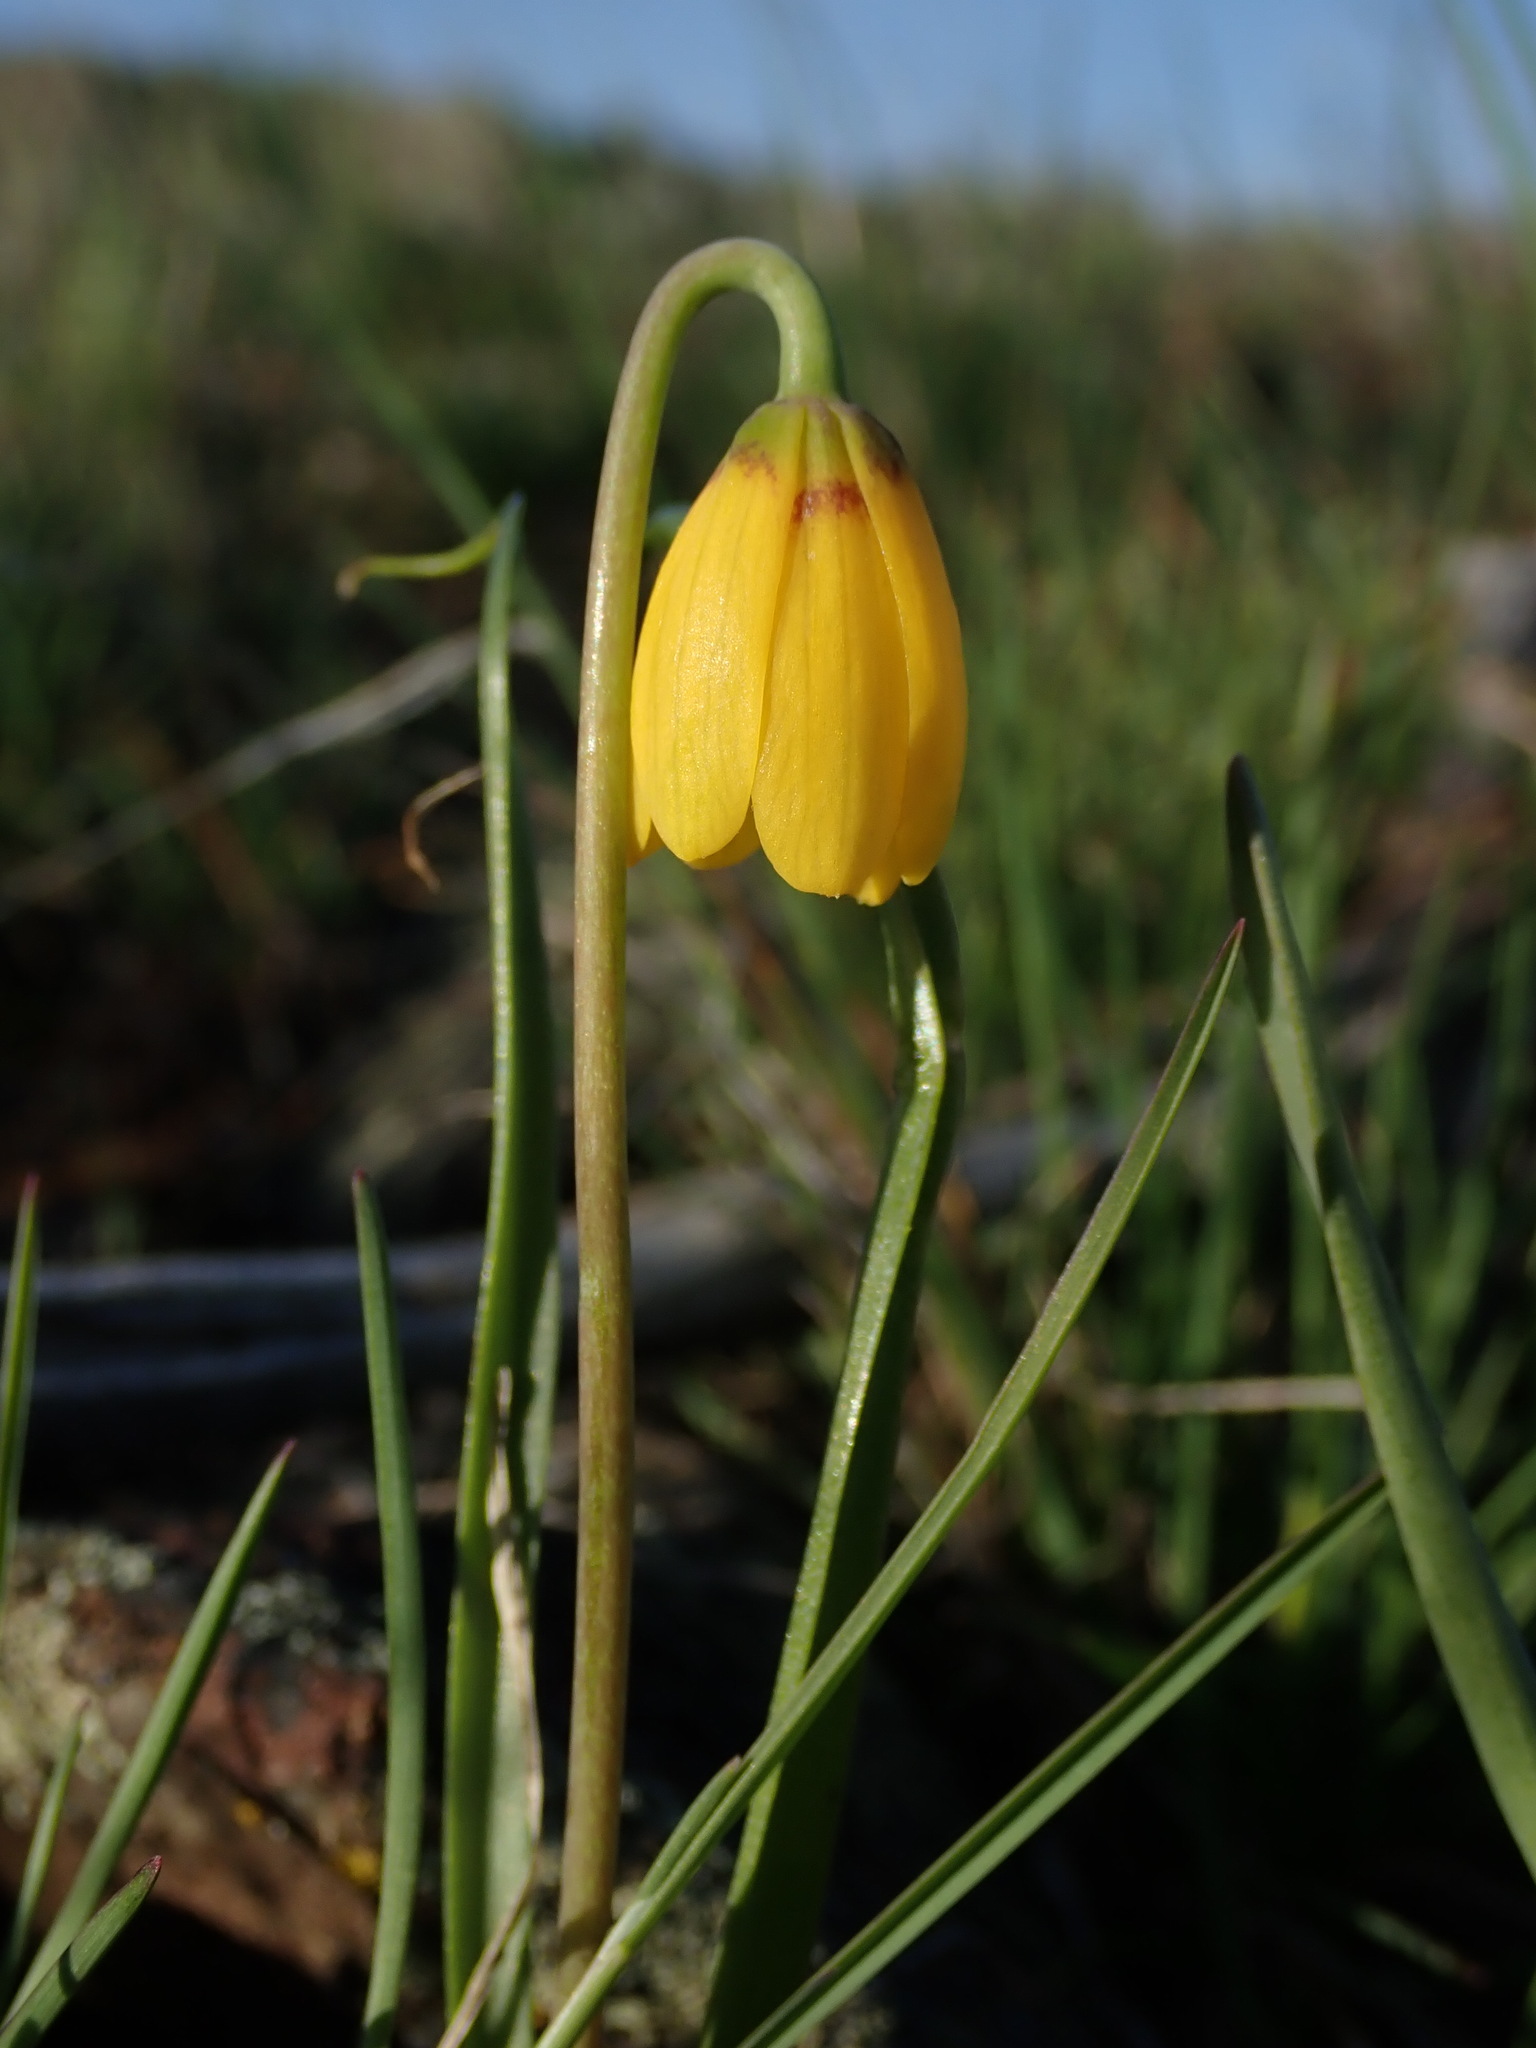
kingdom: Plantae
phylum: Tracheophyta
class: Liliopsida
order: Liliales
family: Liliaceae
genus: Fritillaria
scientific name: Fritillaria pudica
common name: Yellow fritillary
